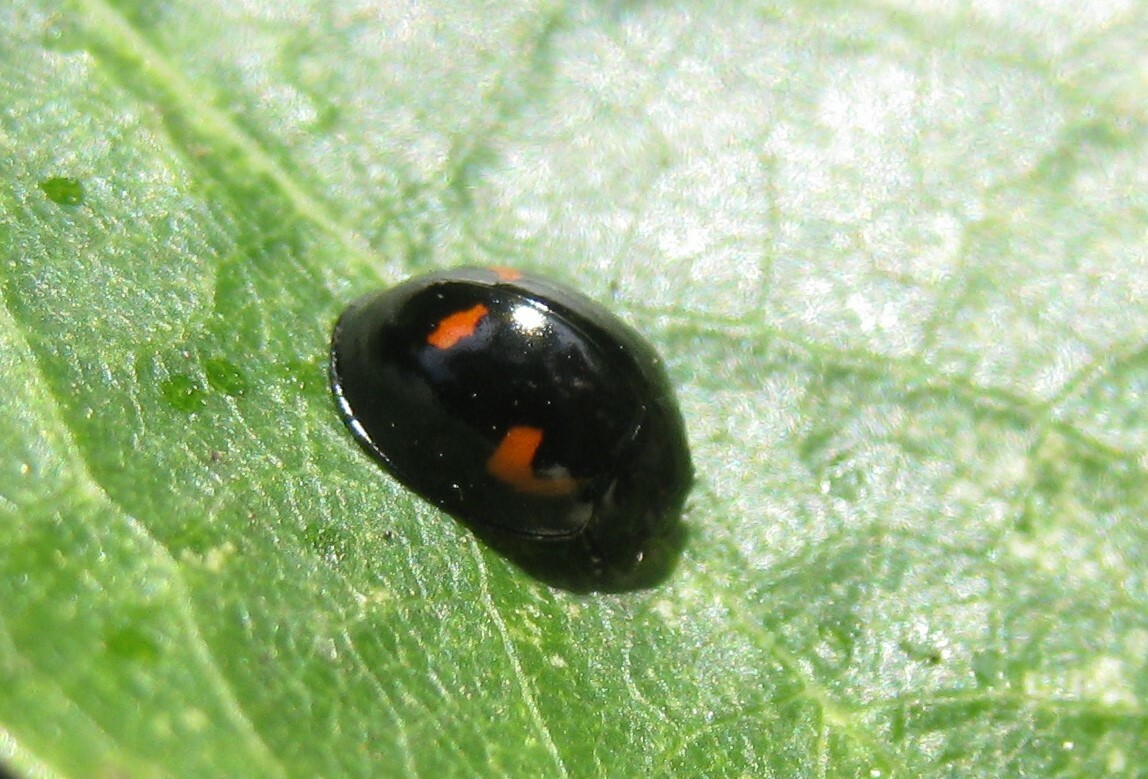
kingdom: Animalia
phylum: Arthropoda
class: Insecta
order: Coleoptera
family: Coccinellidae
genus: Brumus
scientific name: Brumus quadripustulatus
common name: Ladybird beetle
